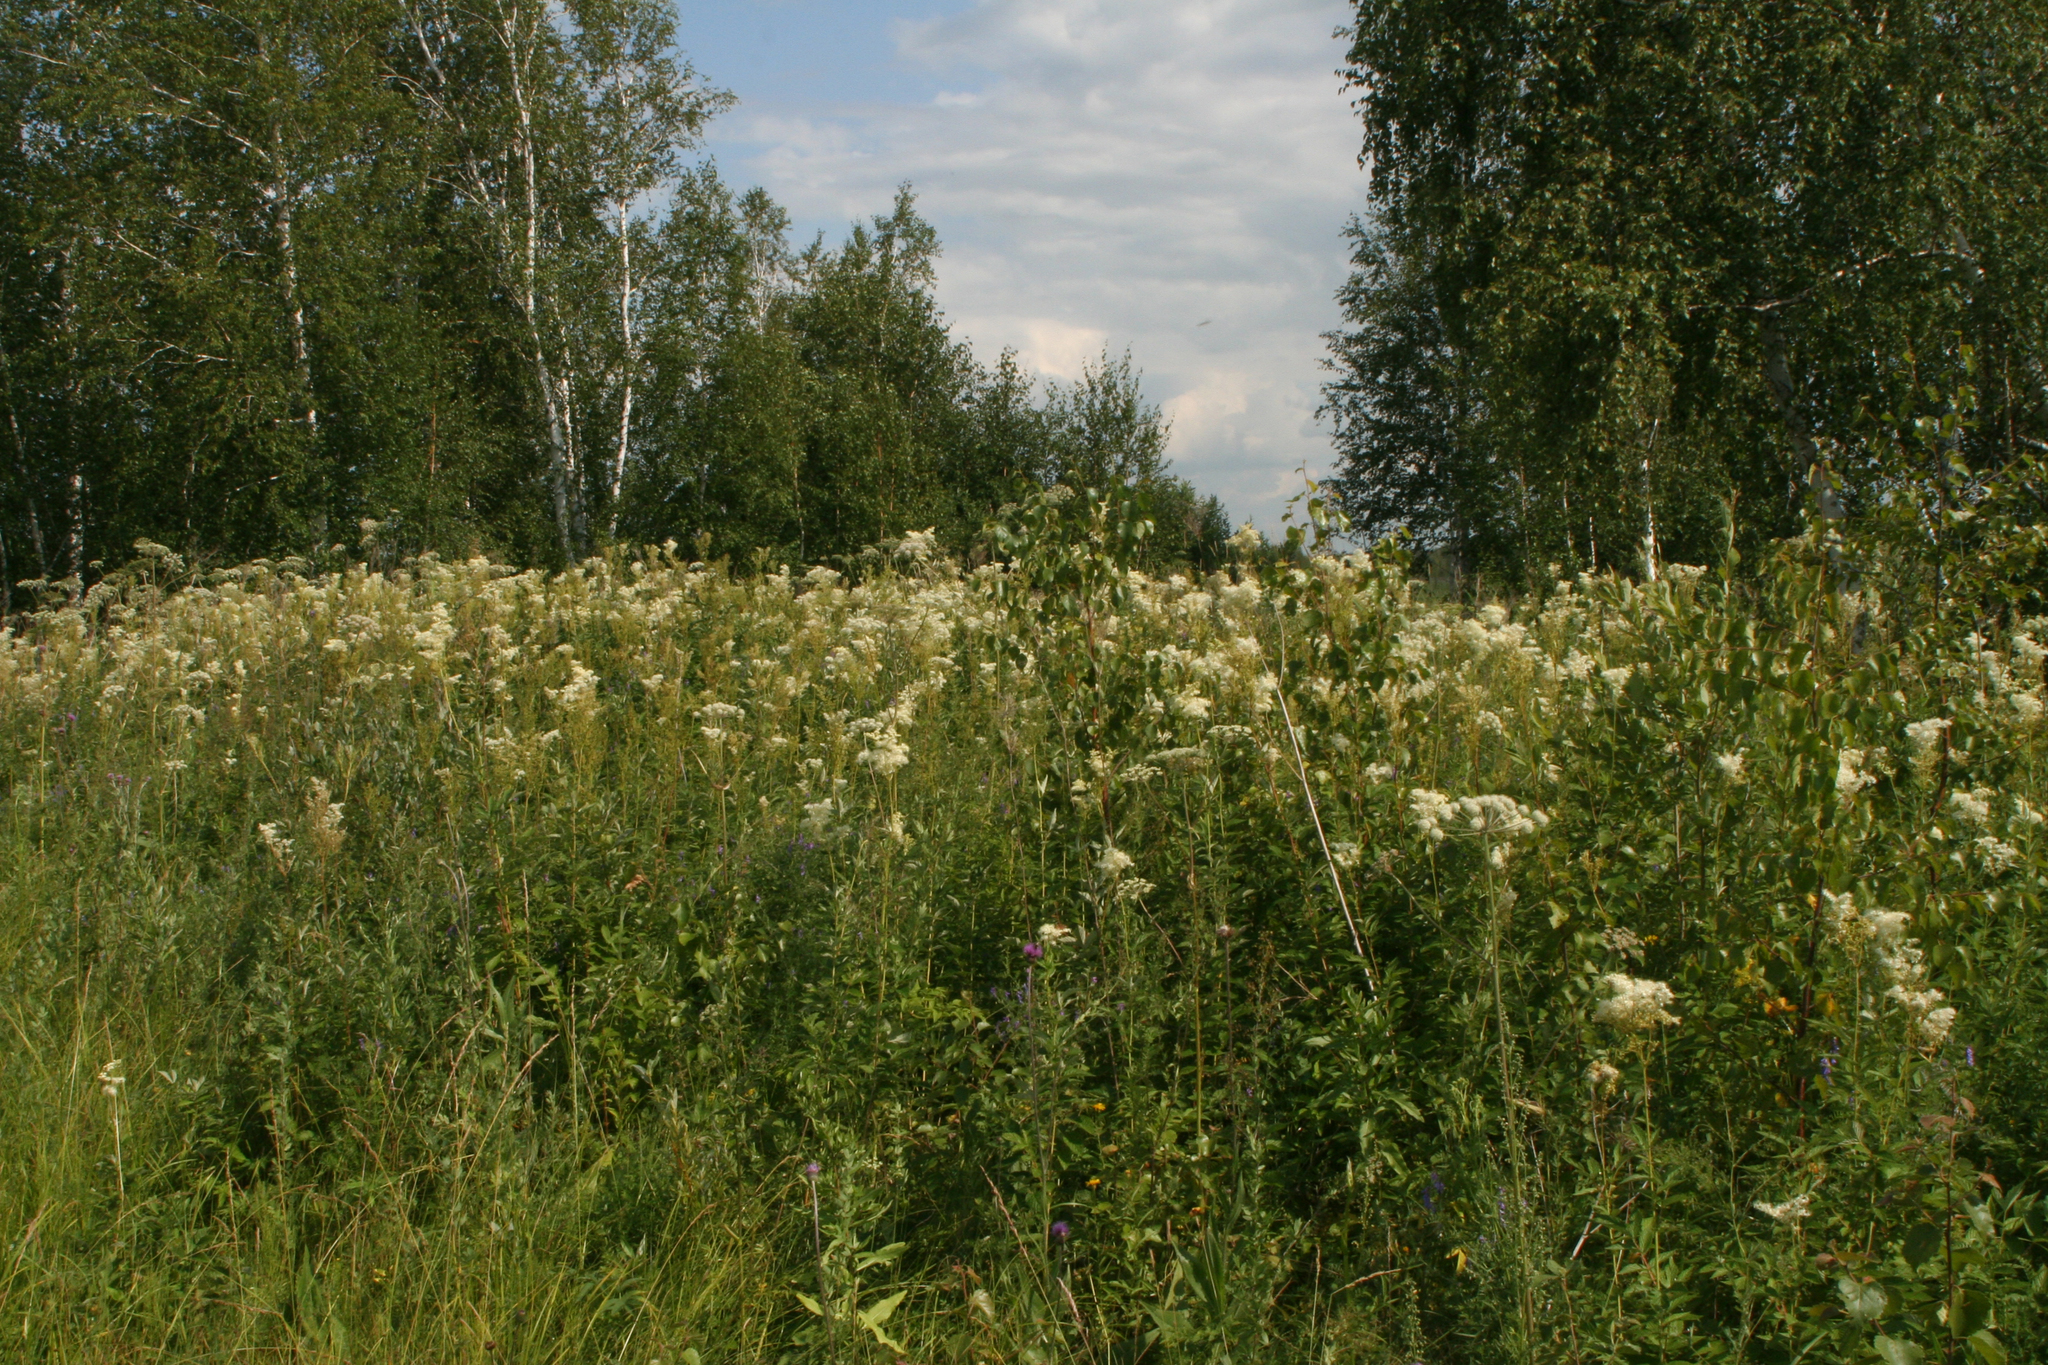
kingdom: Plantae
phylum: Tracheophyta
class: Magnoliopsida
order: Fagales
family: Betulaceae
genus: Betula
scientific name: Betula pendula
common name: Silver birch
